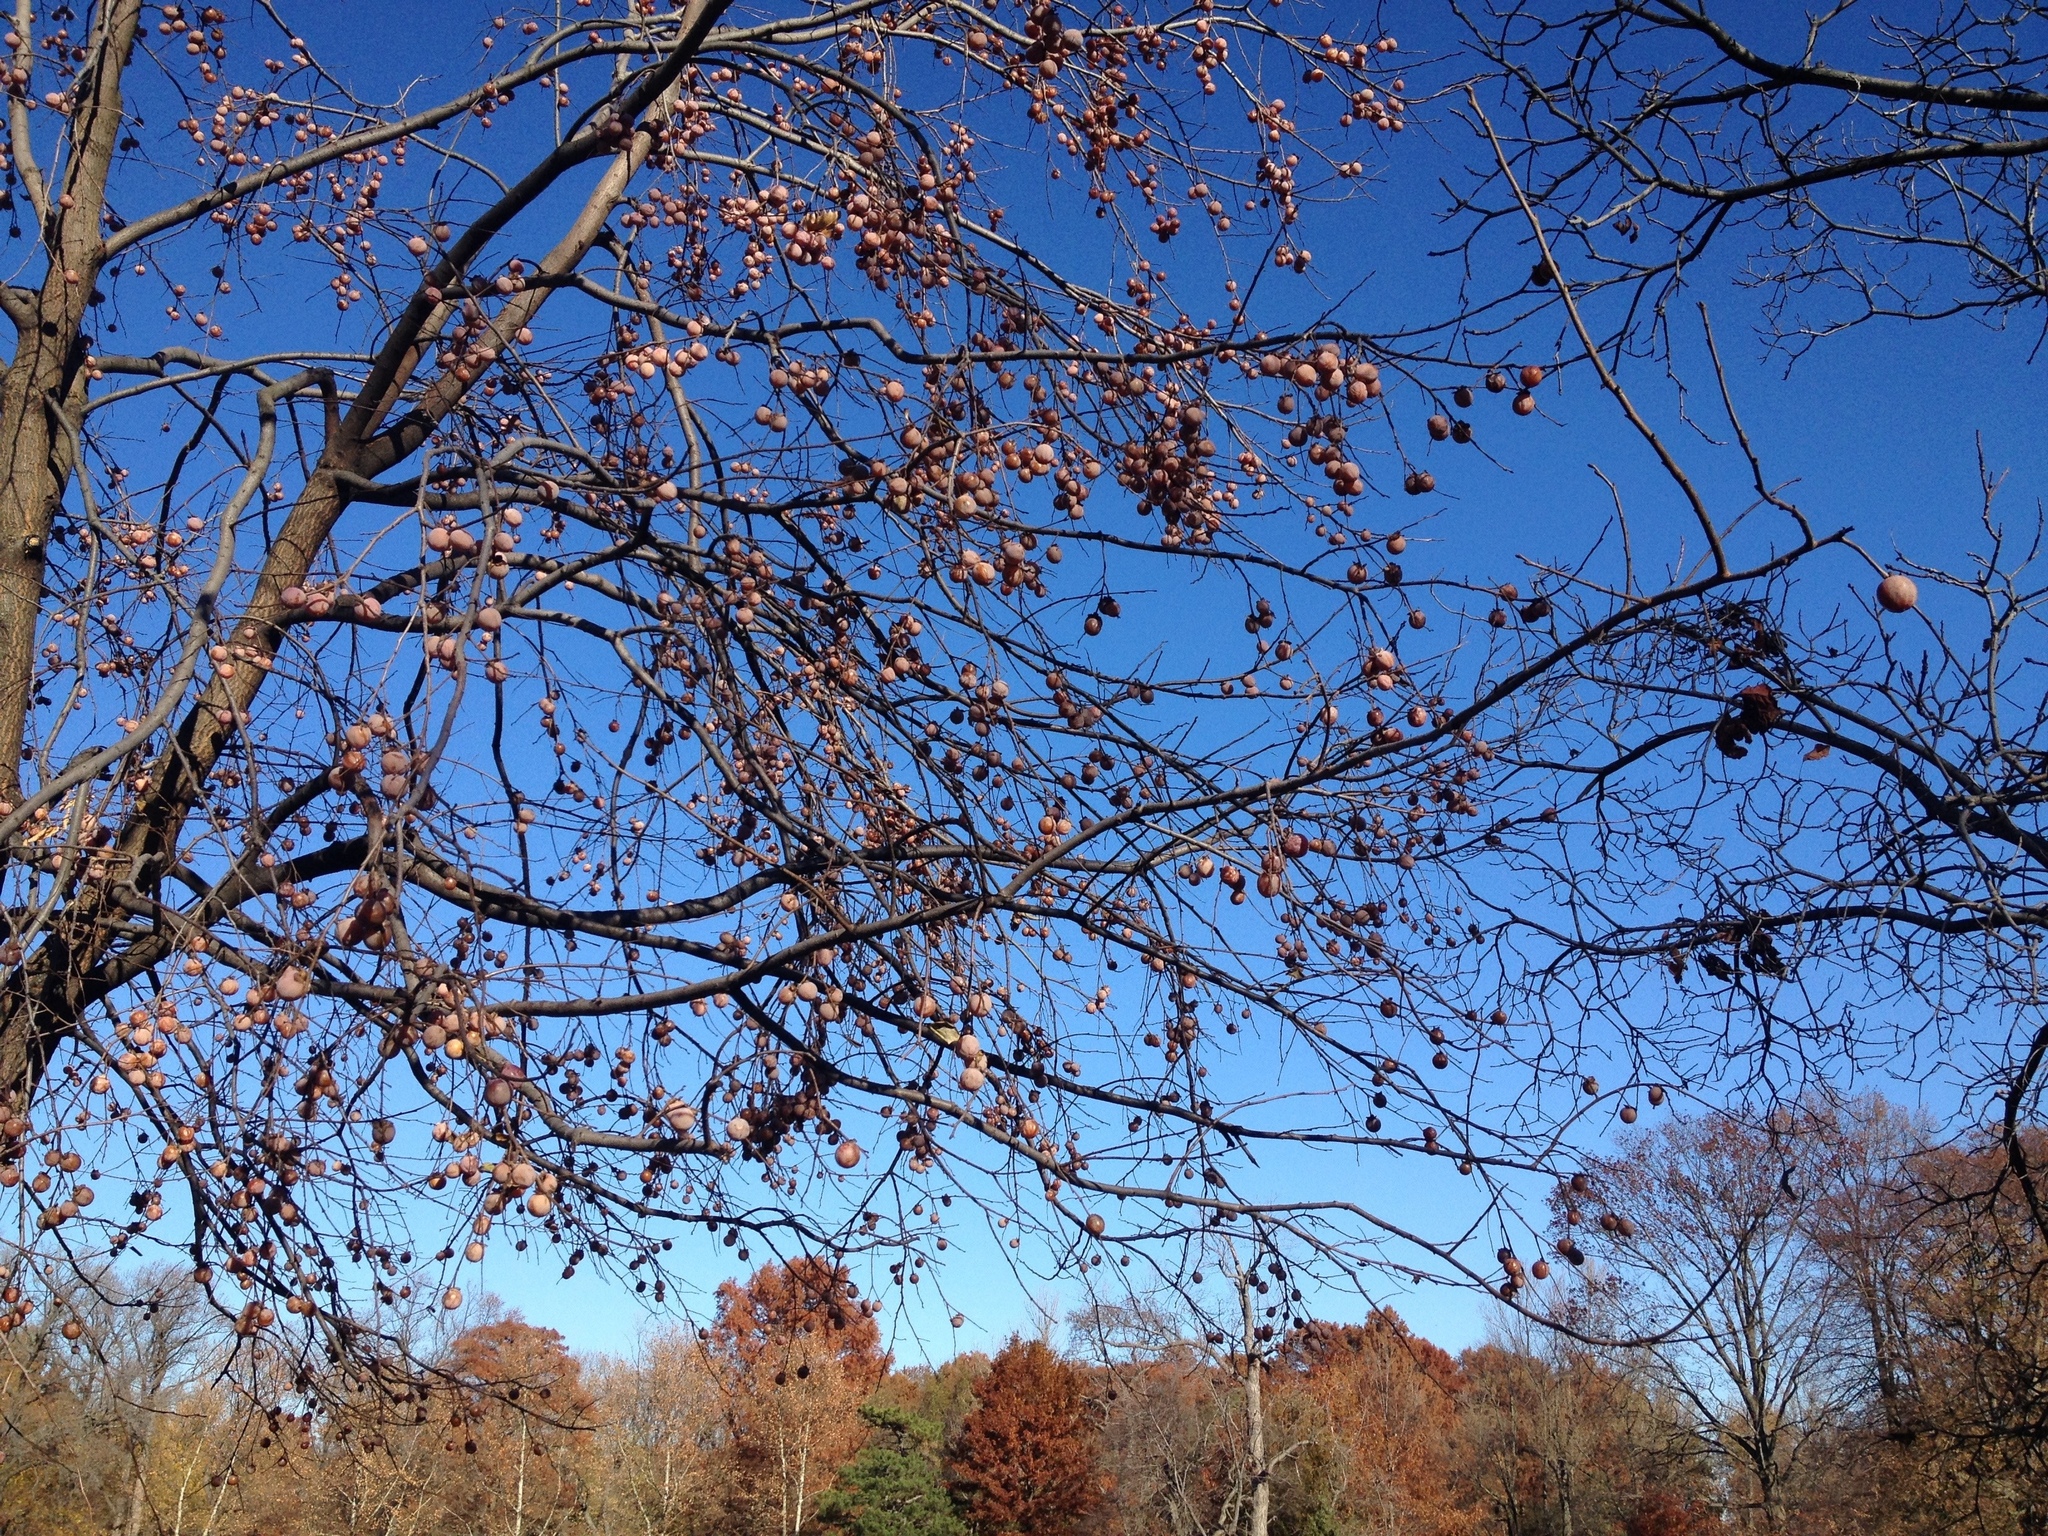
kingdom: Plantae
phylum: Tracheophyta
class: Magnoliopsida
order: Ericales
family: Ebenaceae
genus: Diospyros
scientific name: Diospyros virginiana
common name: Persimmon
